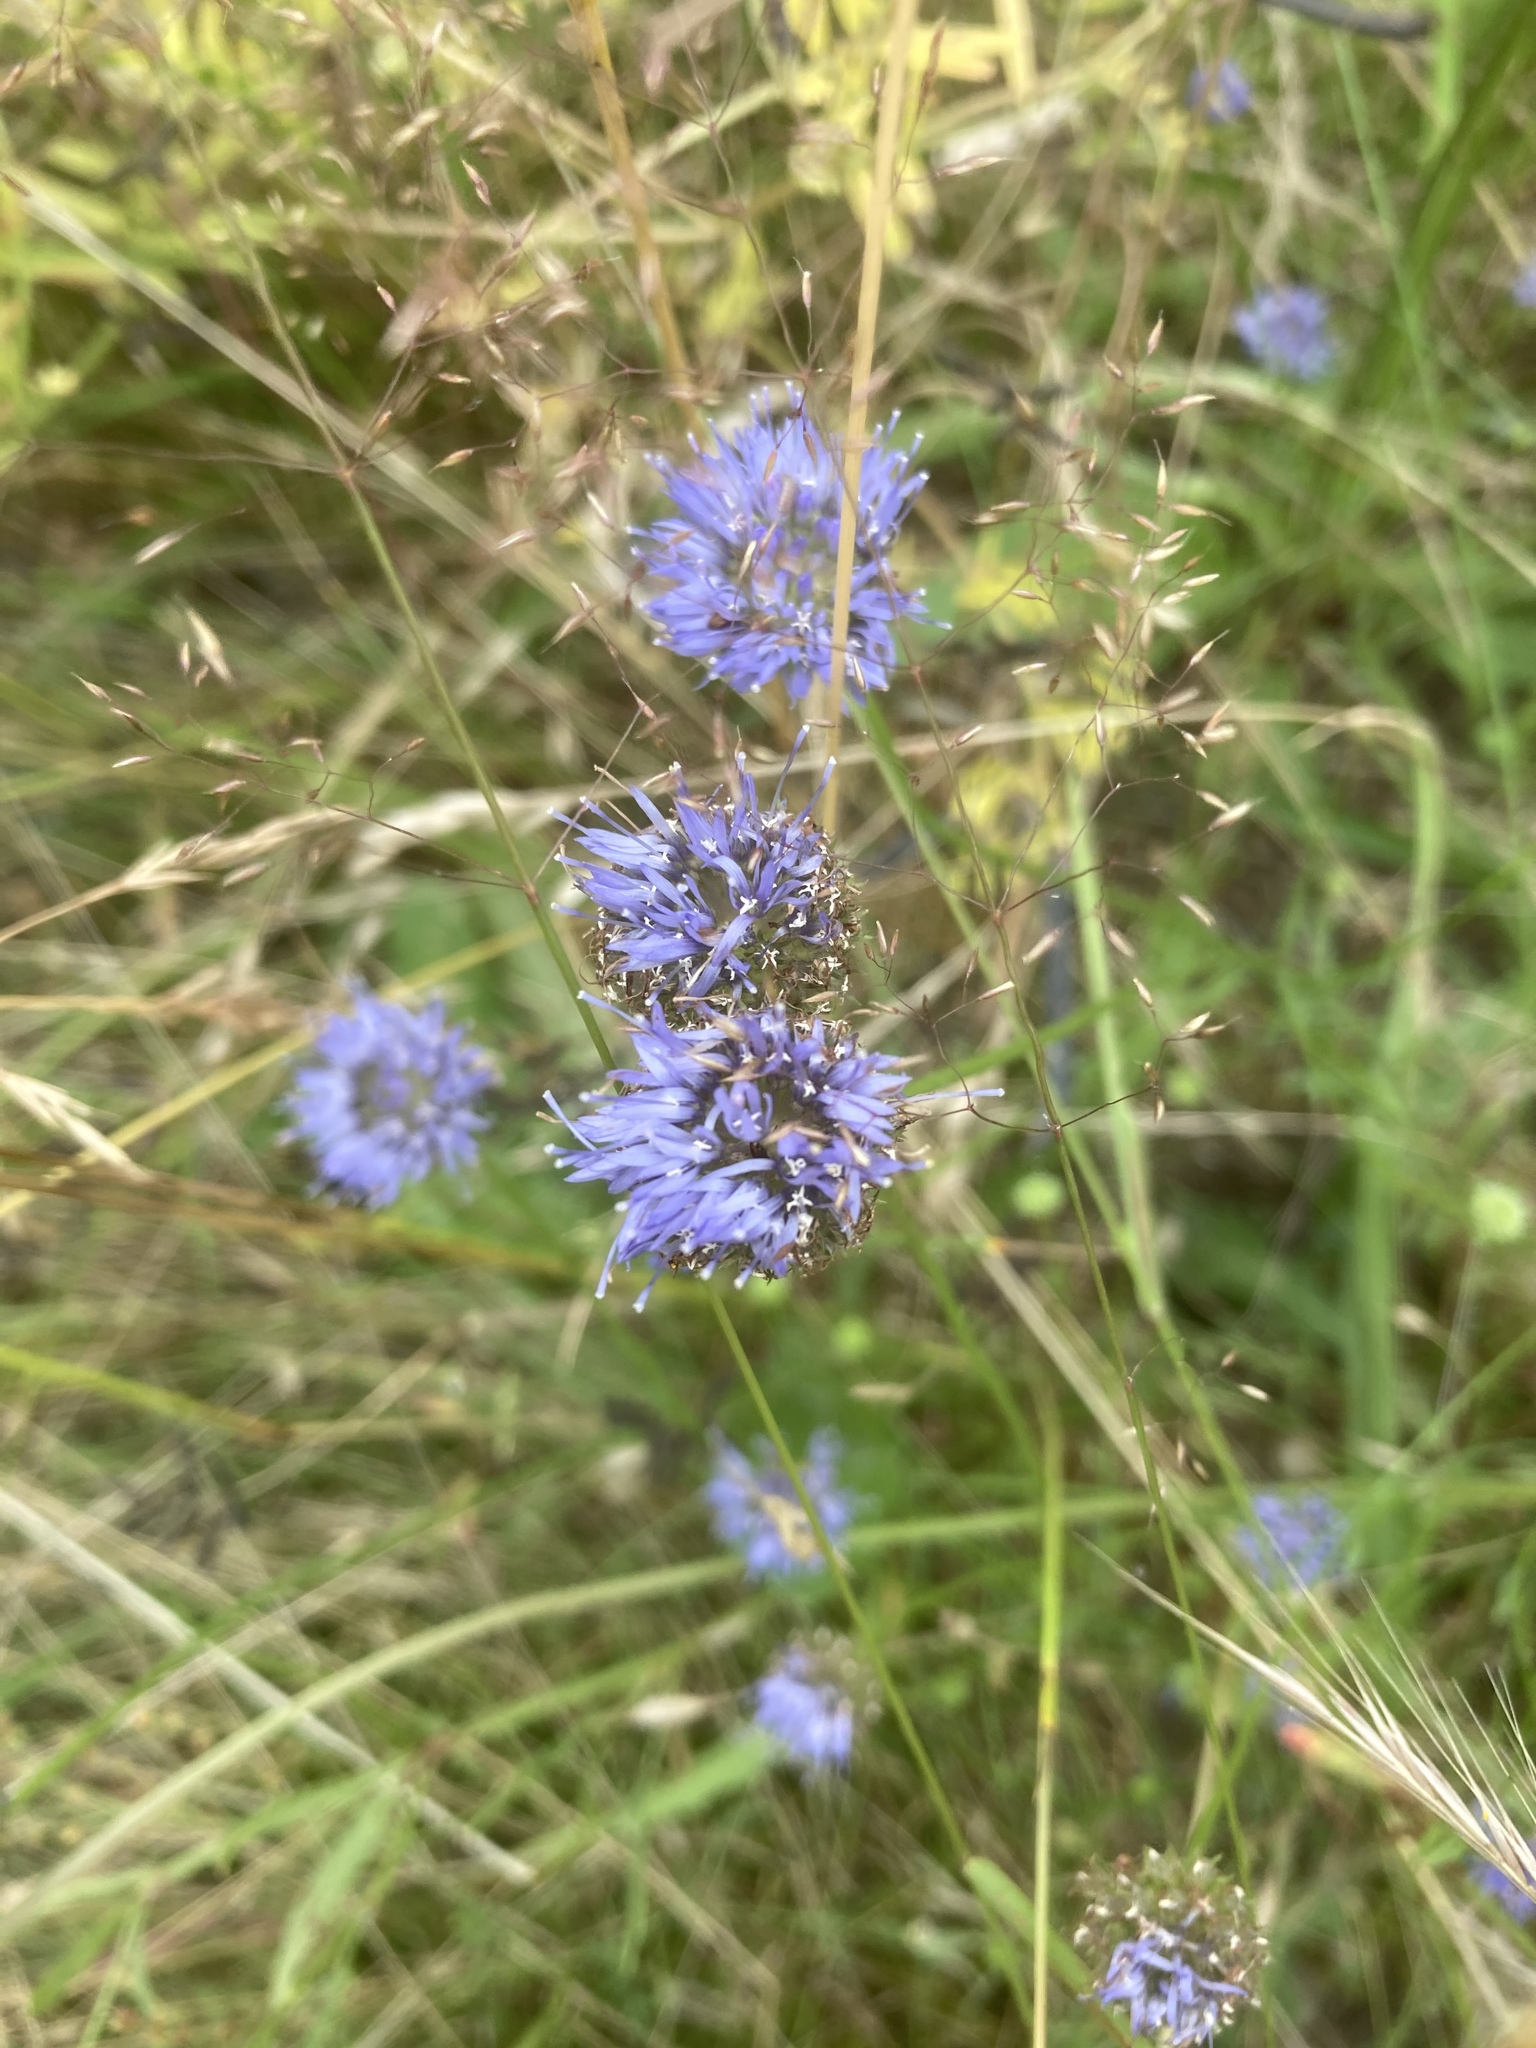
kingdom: Plantae
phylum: Tracheophyta
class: Magnoliopsida
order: Asterales
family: Campanulaceae
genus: Jasione
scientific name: Jasione montana
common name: Sheep's-bit
